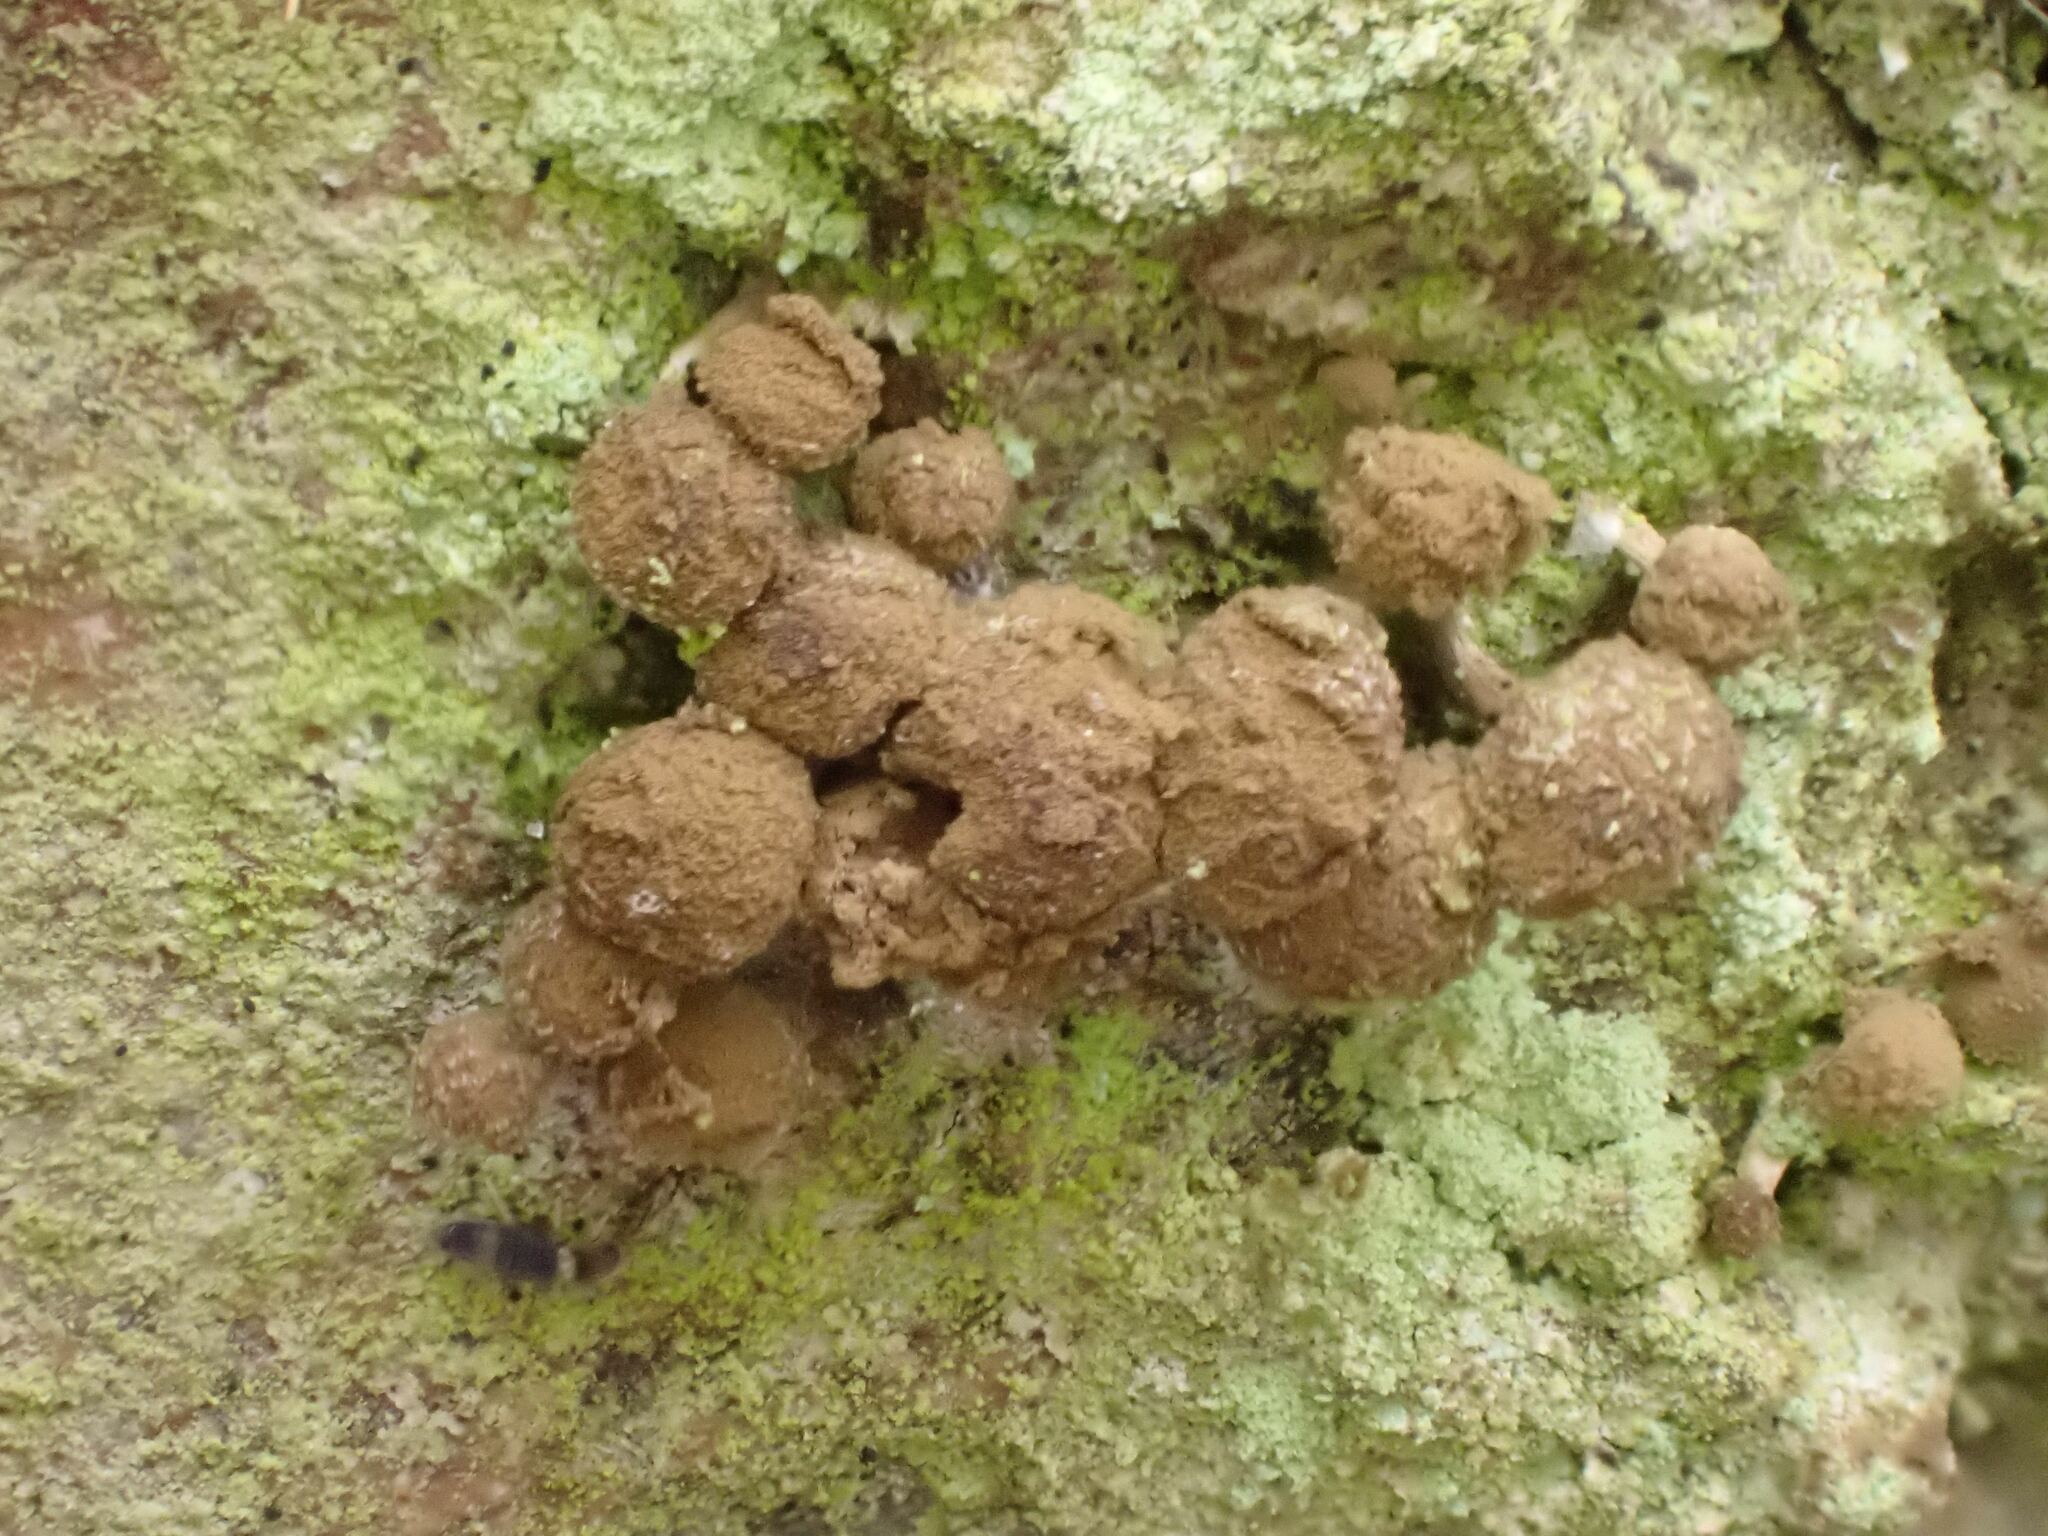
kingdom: Fungi
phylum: Basidiomycota
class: Atractiellomycetes
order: Atractiellales
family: Phleogenaceae
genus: Phleogena
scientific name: Phleogena faginea
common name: Fenugreek stalkball
